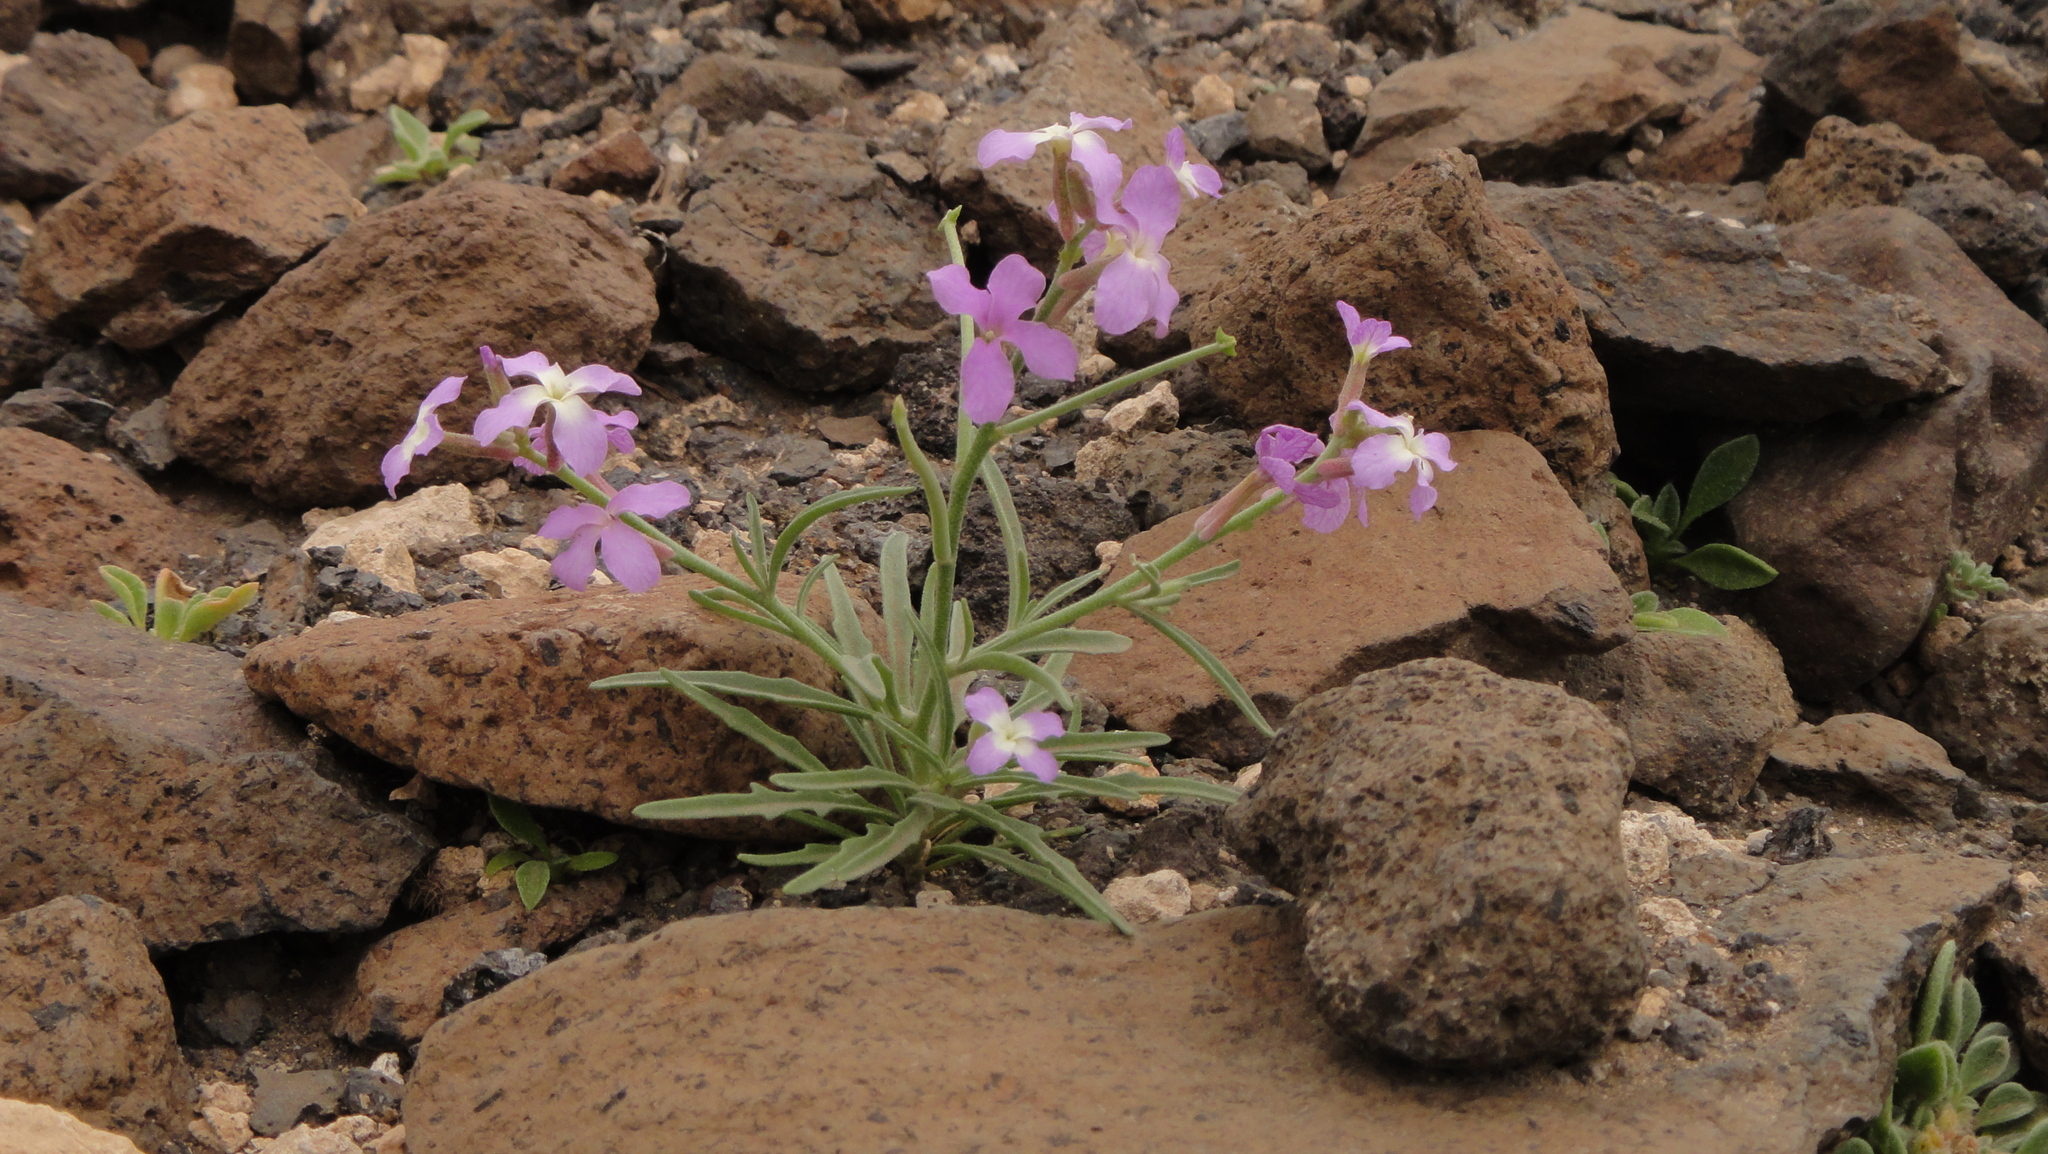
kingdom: Plantae
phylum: Tracheophyta
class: Magnoliopsida
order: Brassicales
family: Brassicaceae
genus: Matthiola
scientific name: Matthiola bolleana
